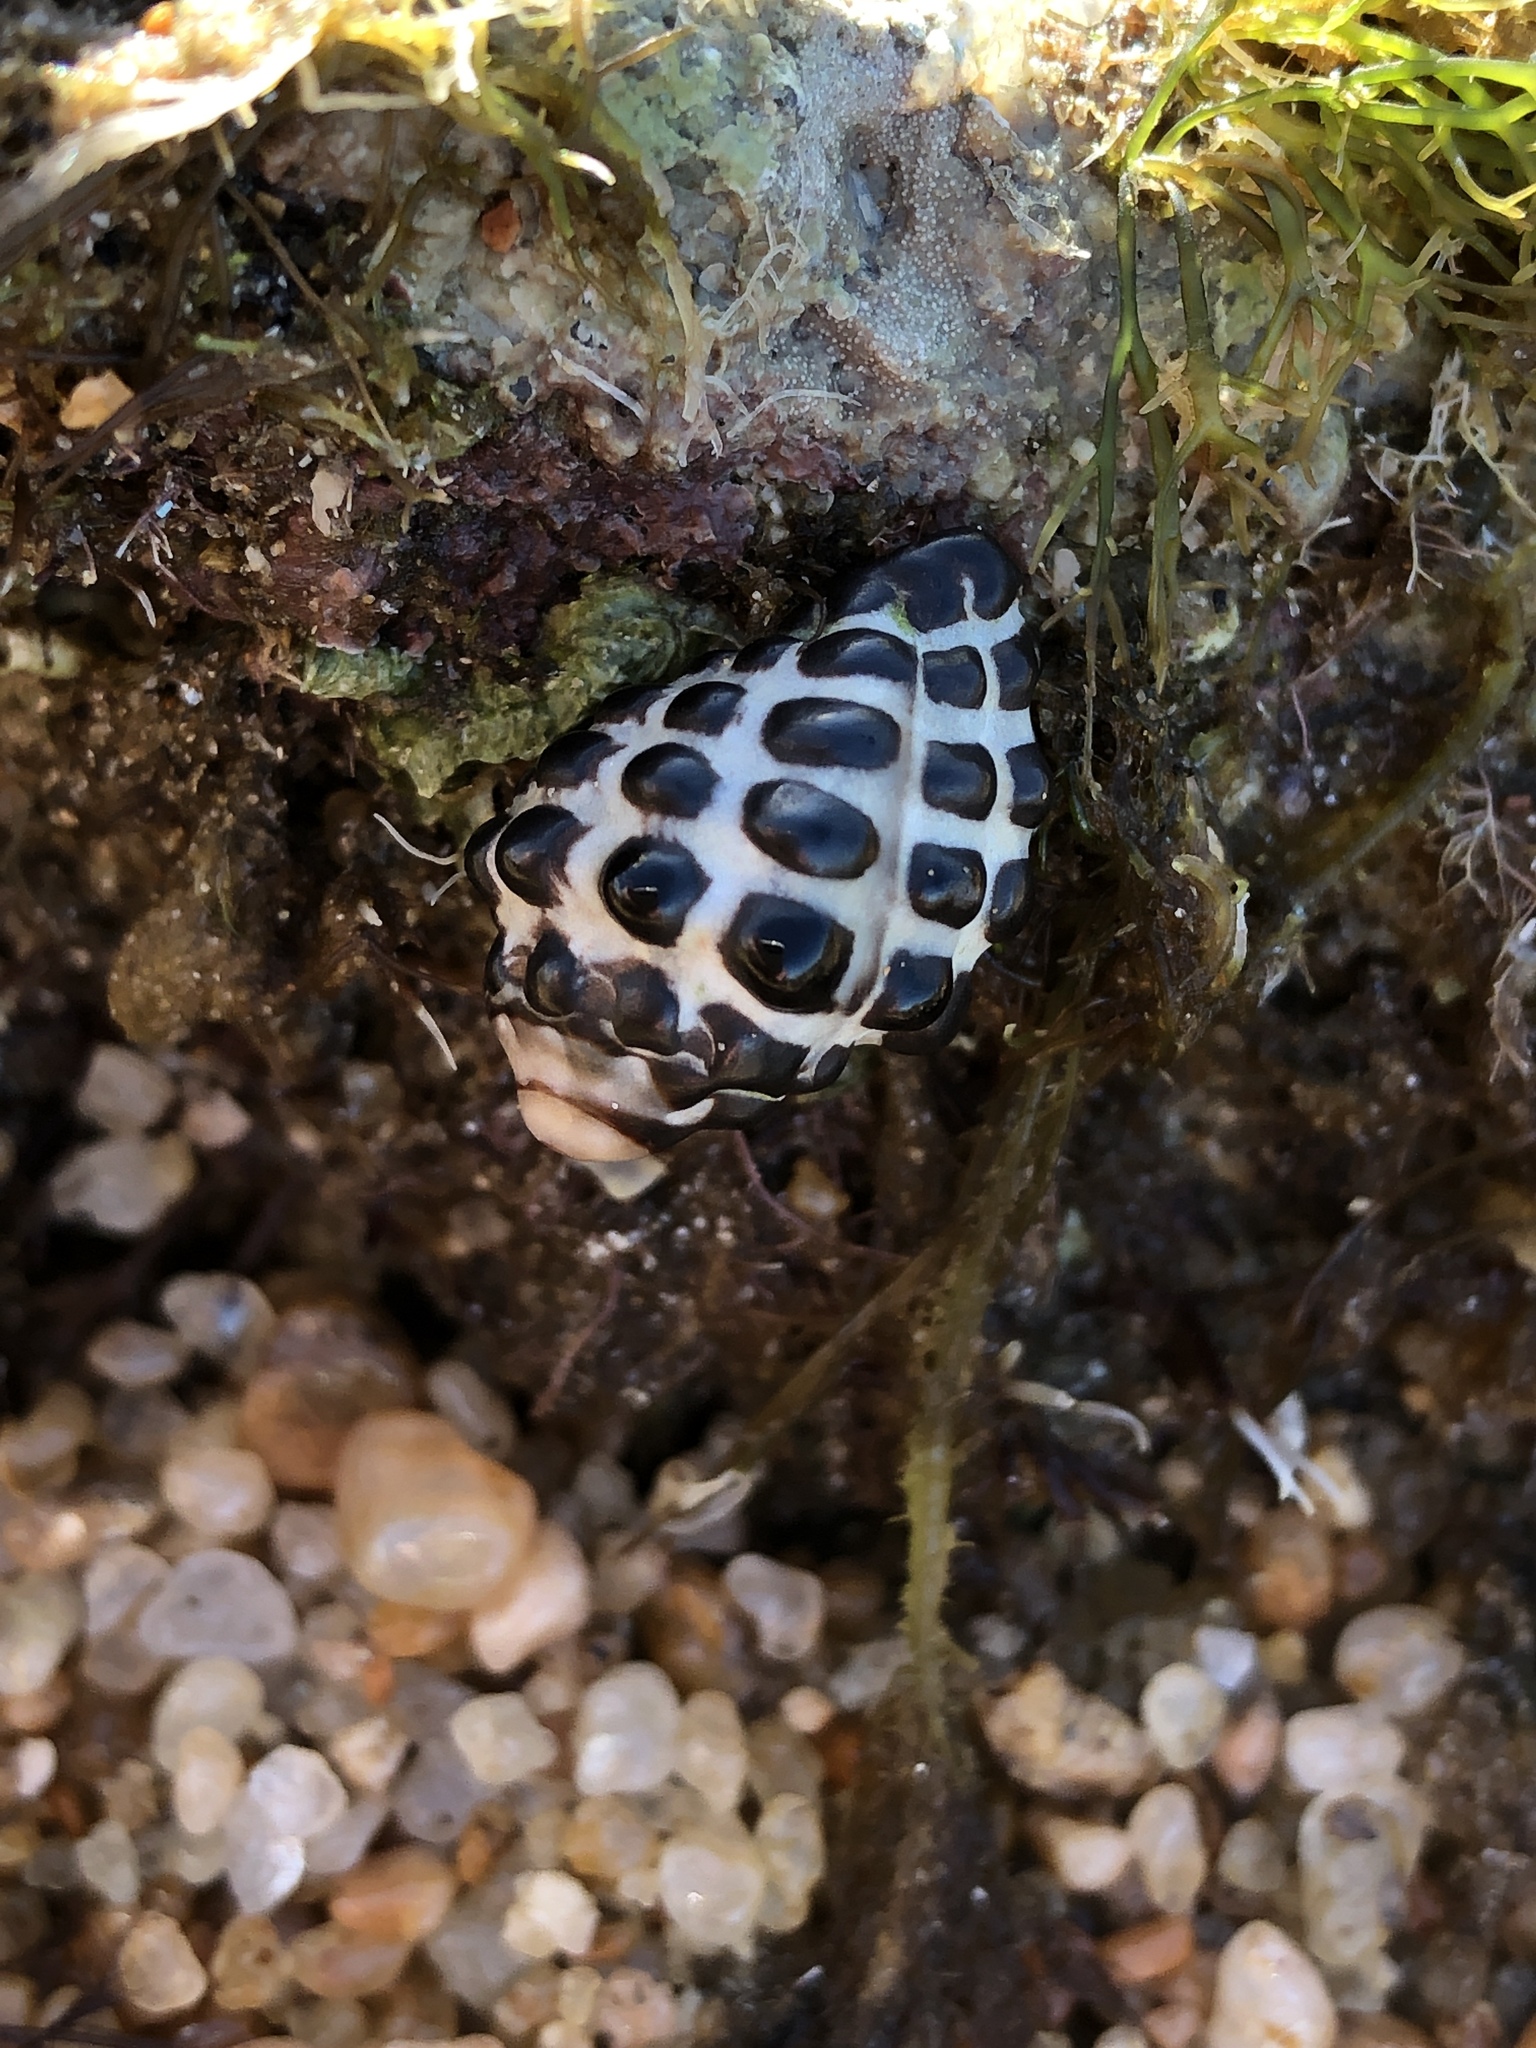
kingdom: Animalia
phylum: Mollusca
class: Gastropoda
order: Neogastropoda
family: Muricidae
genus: Tenguella
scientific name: Tenguella marginalba
